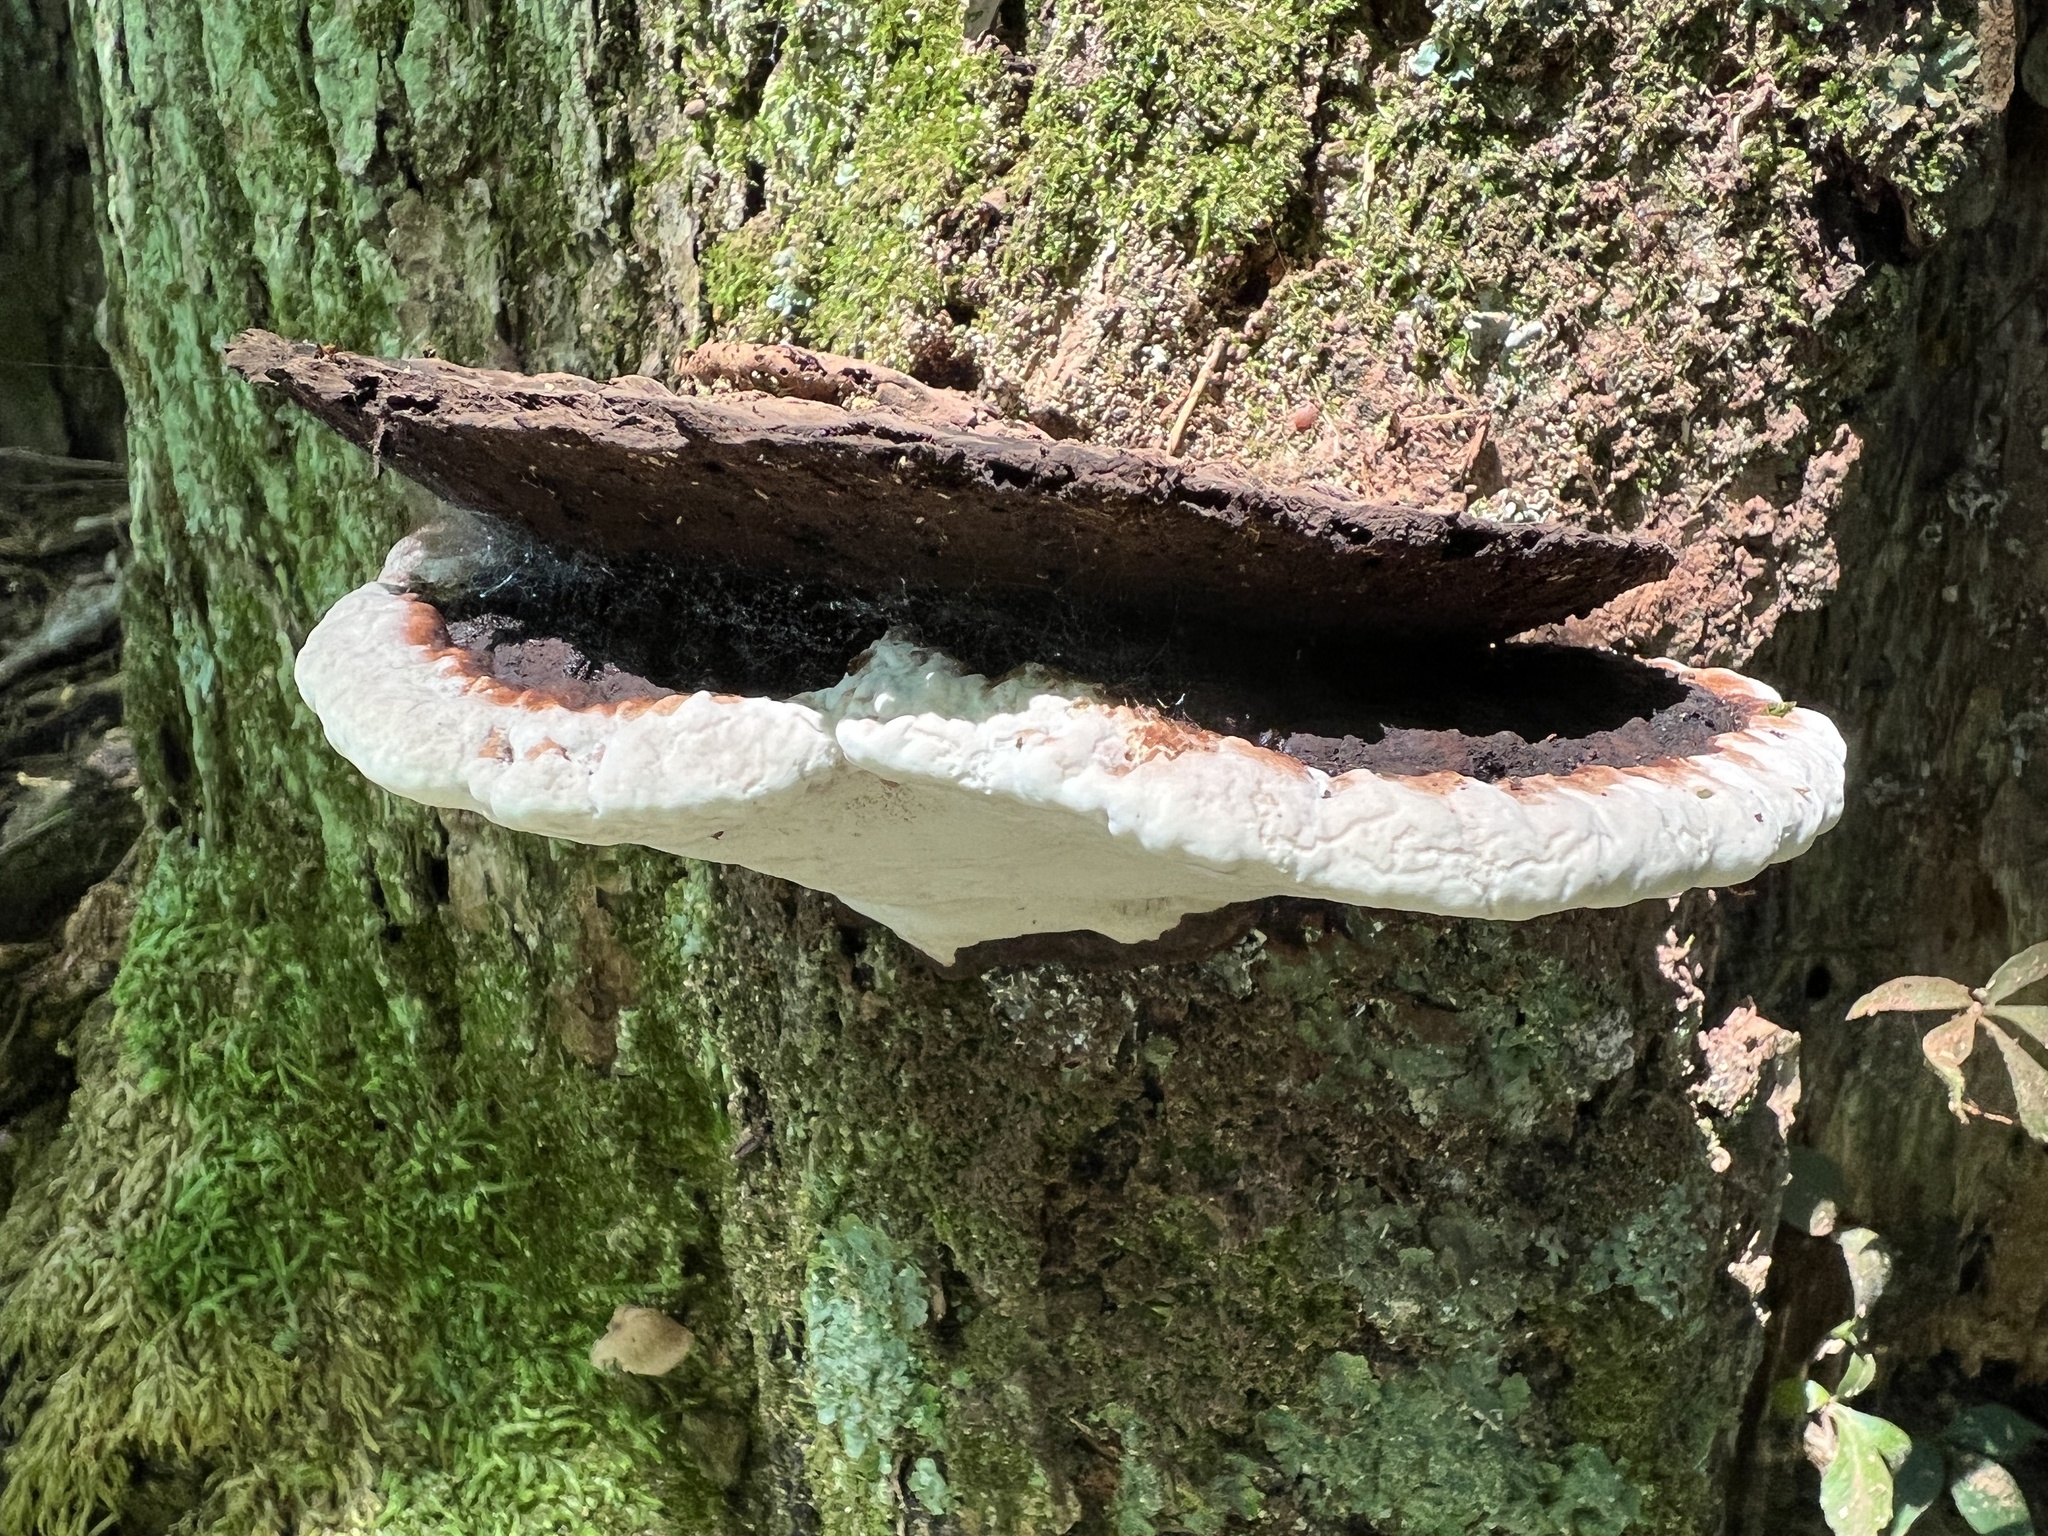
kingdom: Fungi
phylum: Basidiomycota
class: Agaricomycetes
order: Polyporales
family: Polyporaceae
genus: Ganoderma
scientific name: Ganoderma lobatum
